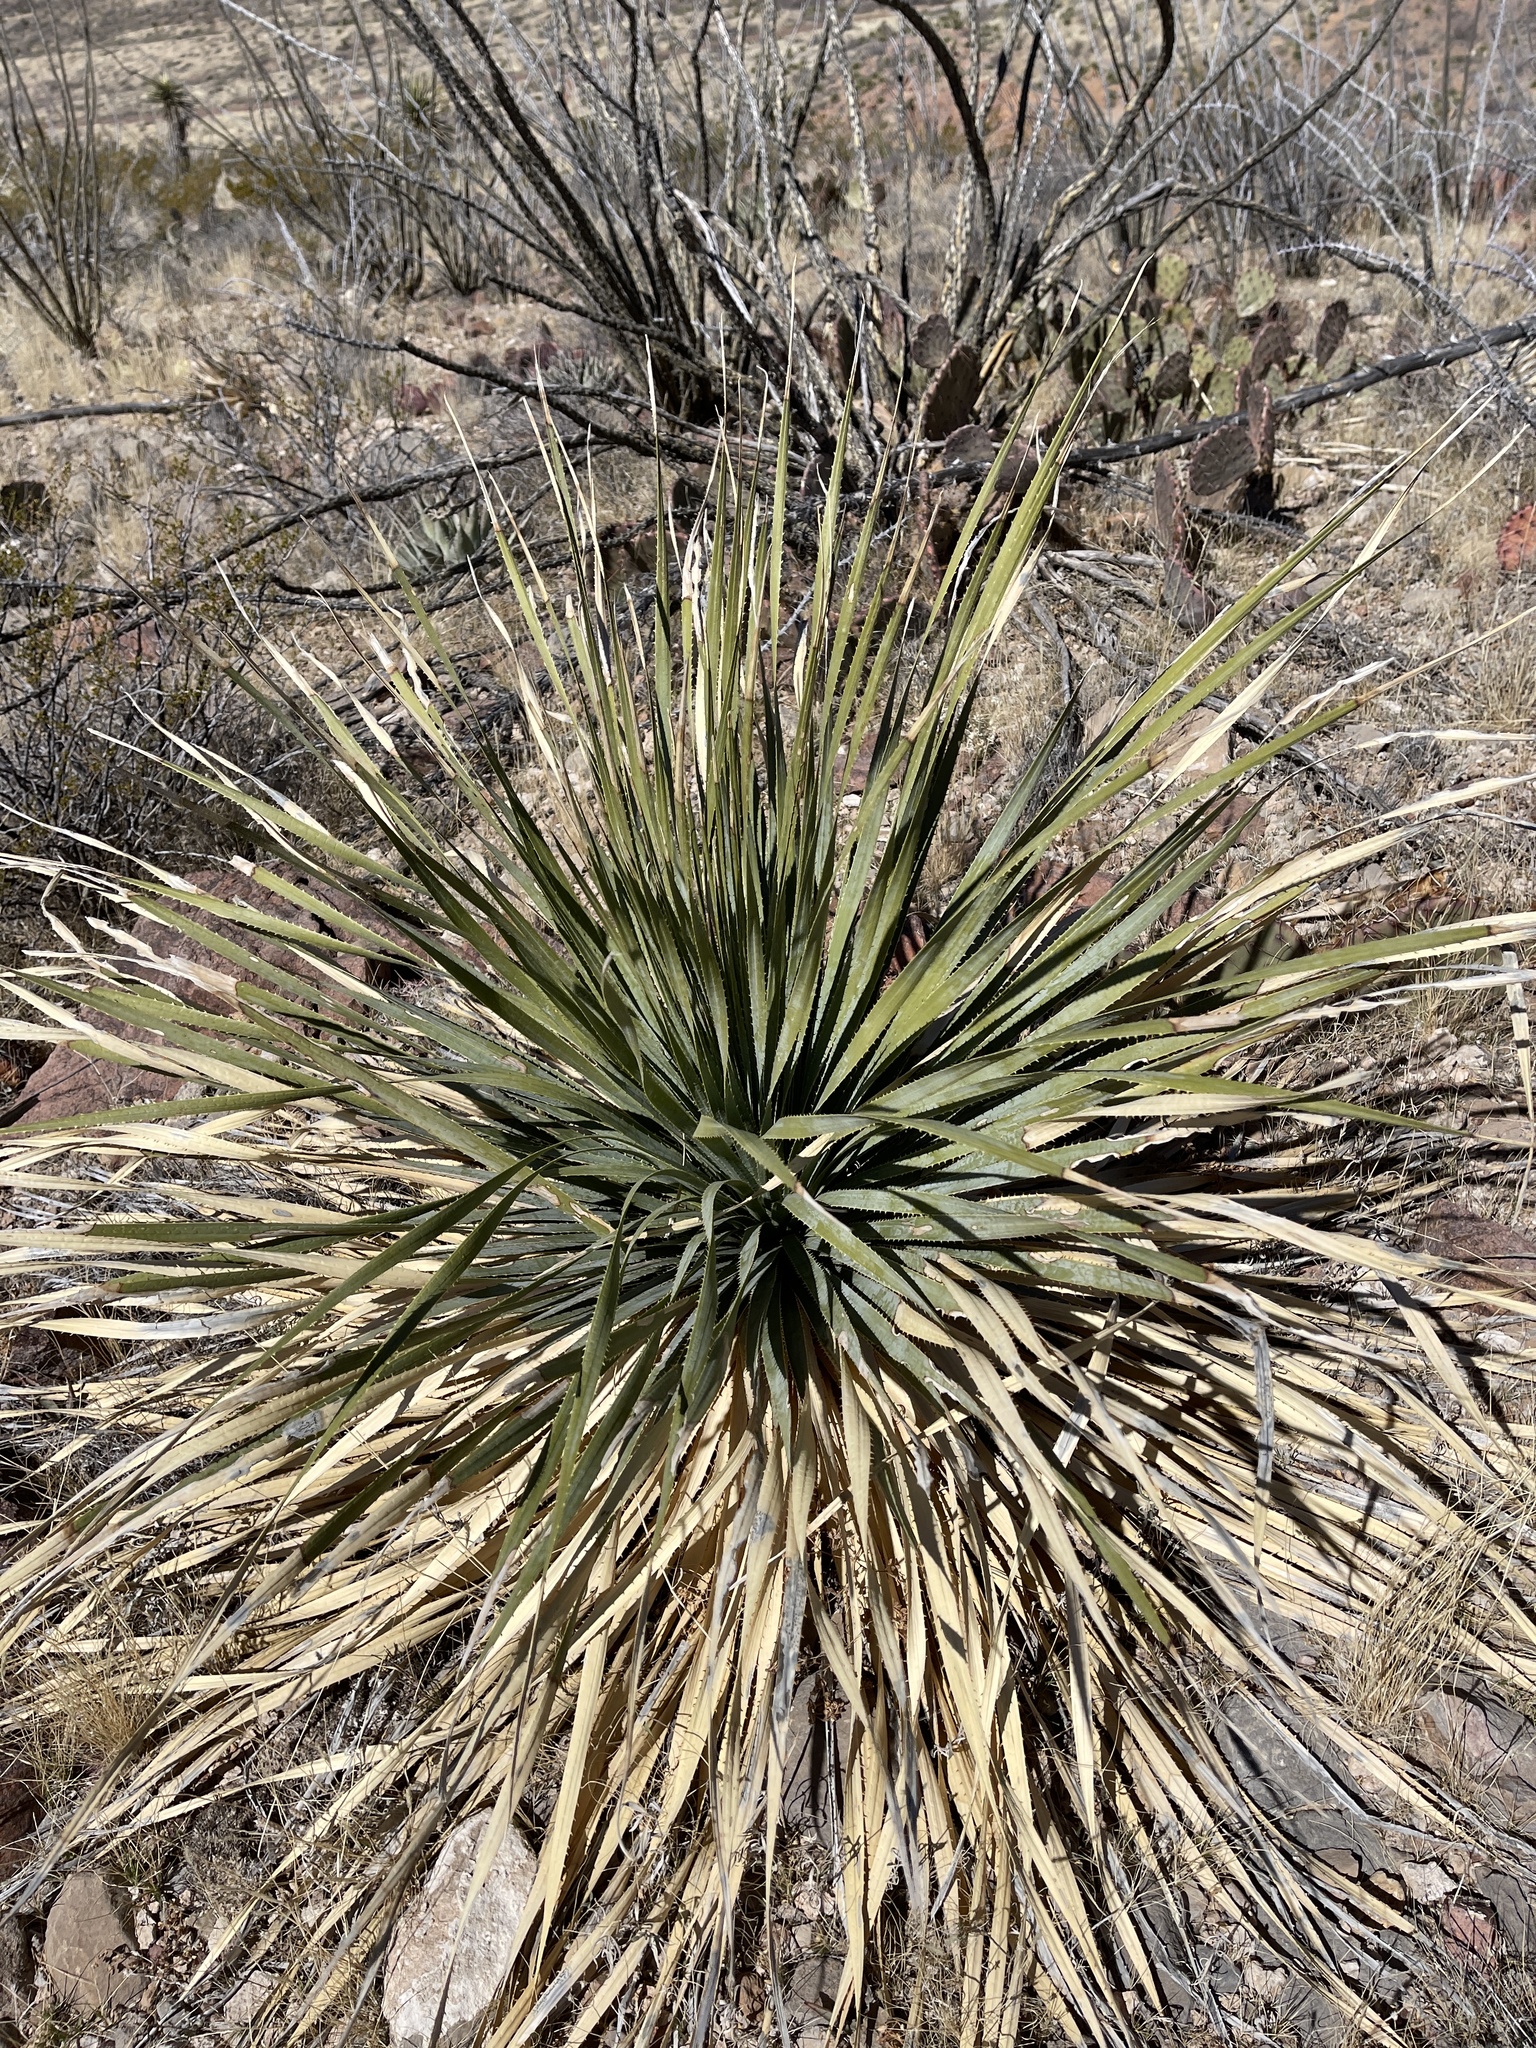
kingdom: Plantae
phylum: Tracheophyta
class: Liliopsida
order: Asparagales
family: Asparagaceae
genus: Dasylirion
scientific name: Dasylirion wheeleri
